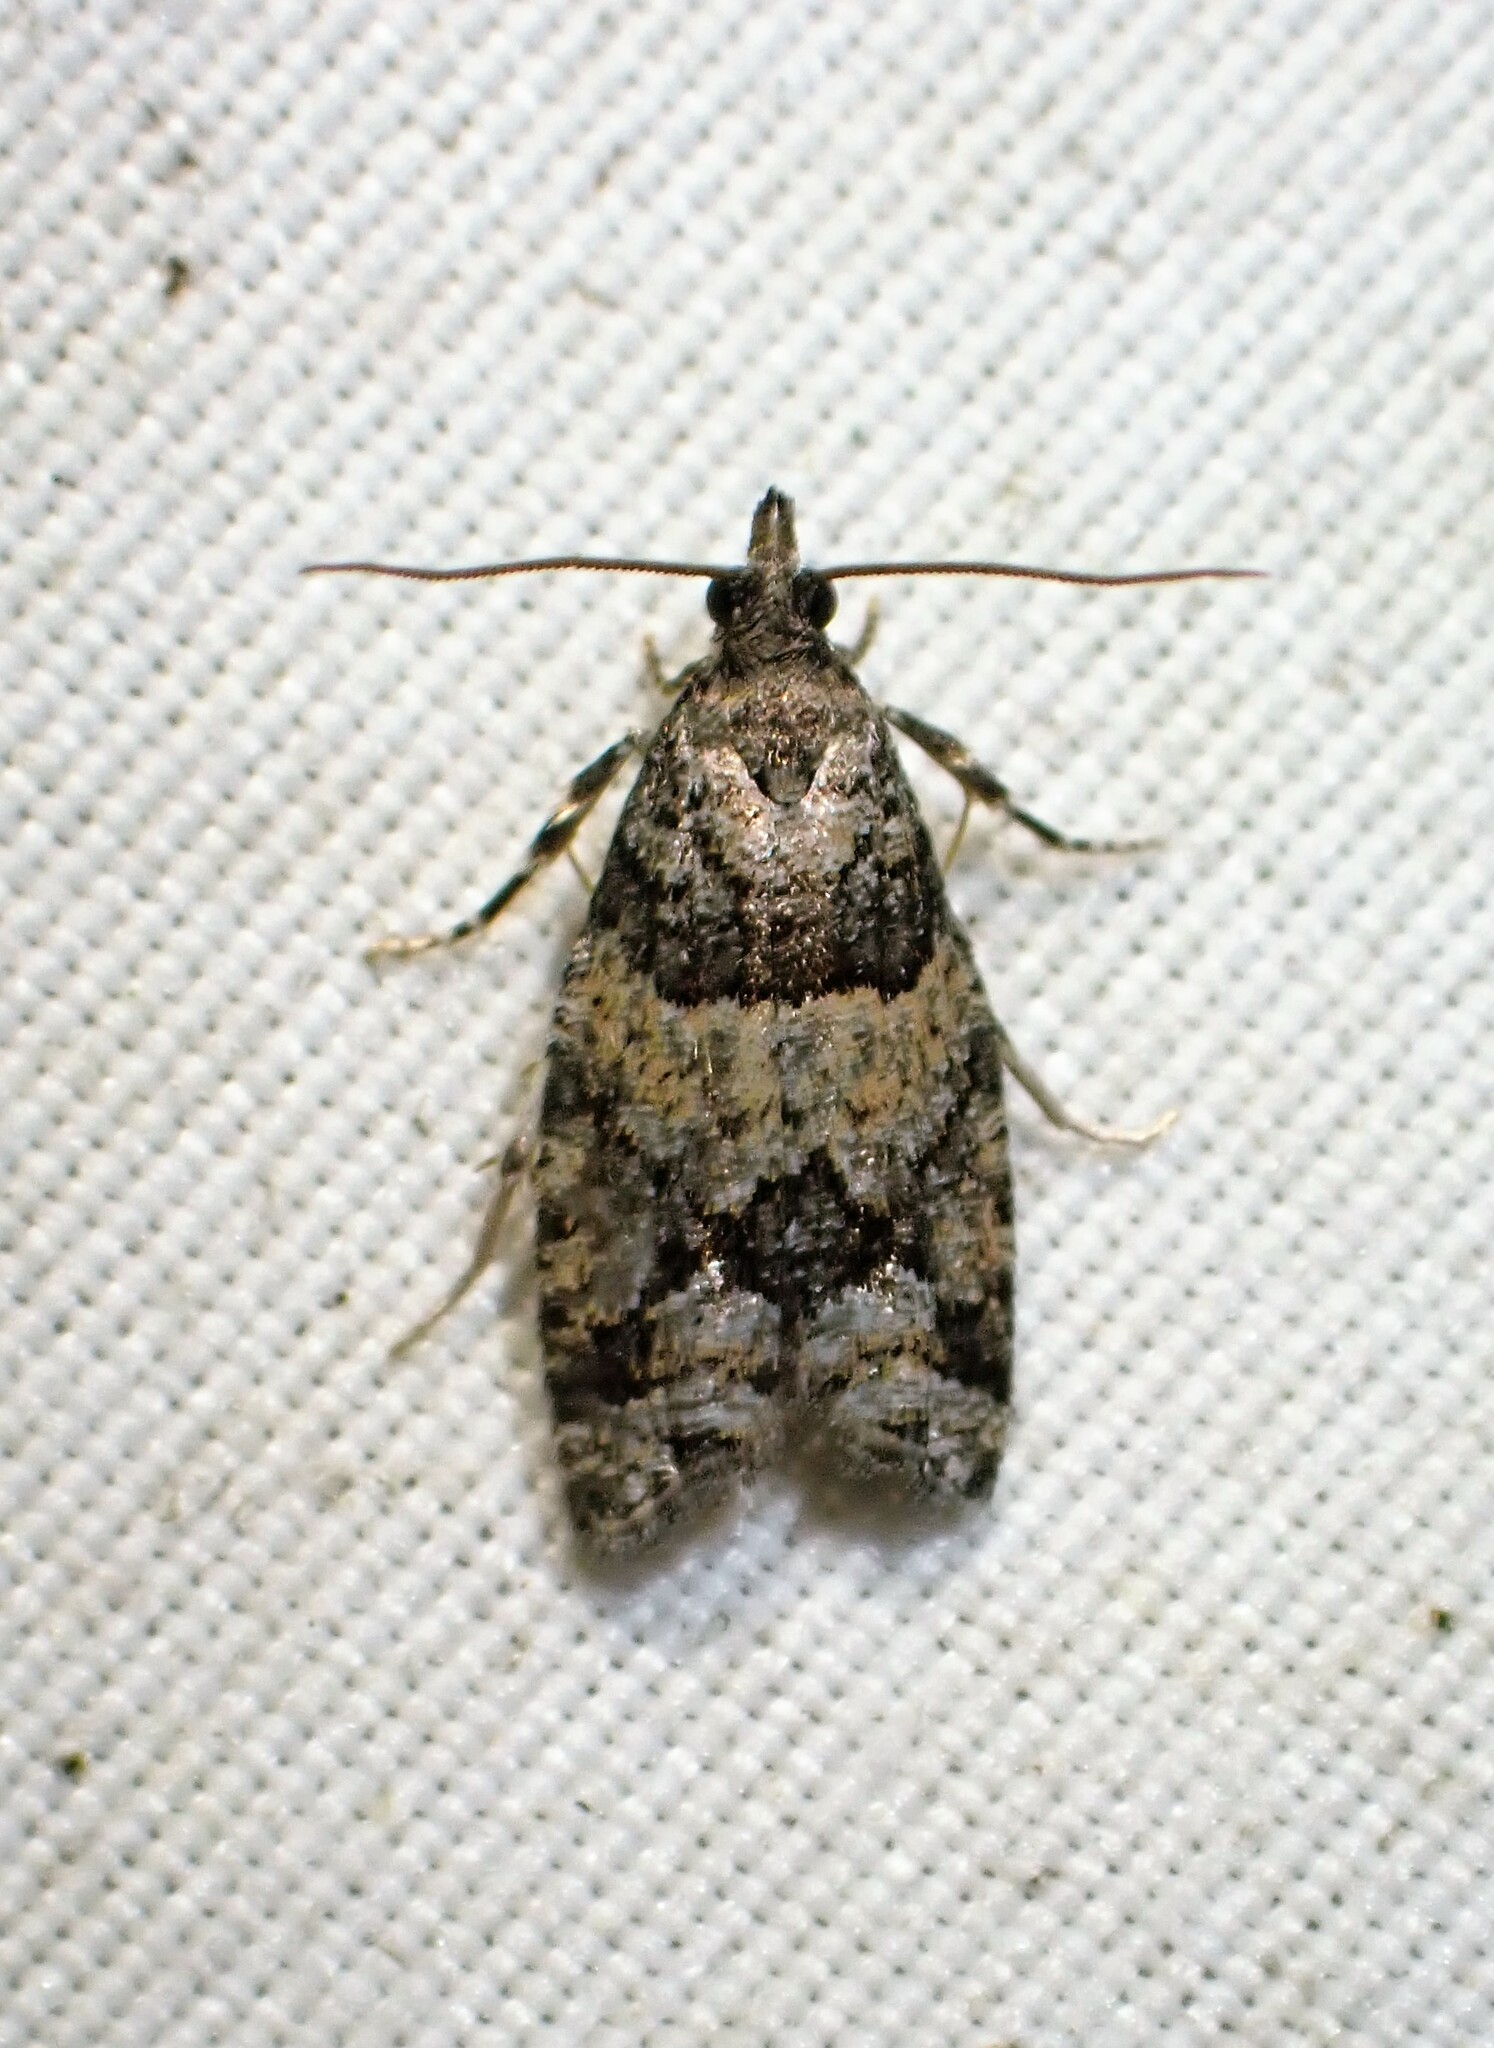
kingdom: Animalia
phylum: Arthropoda
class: Insecta
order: Lepidoptera
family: Tortricidae
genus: Epinotia
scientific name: Epinotia radicana
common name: Red-striped needleworm moth
